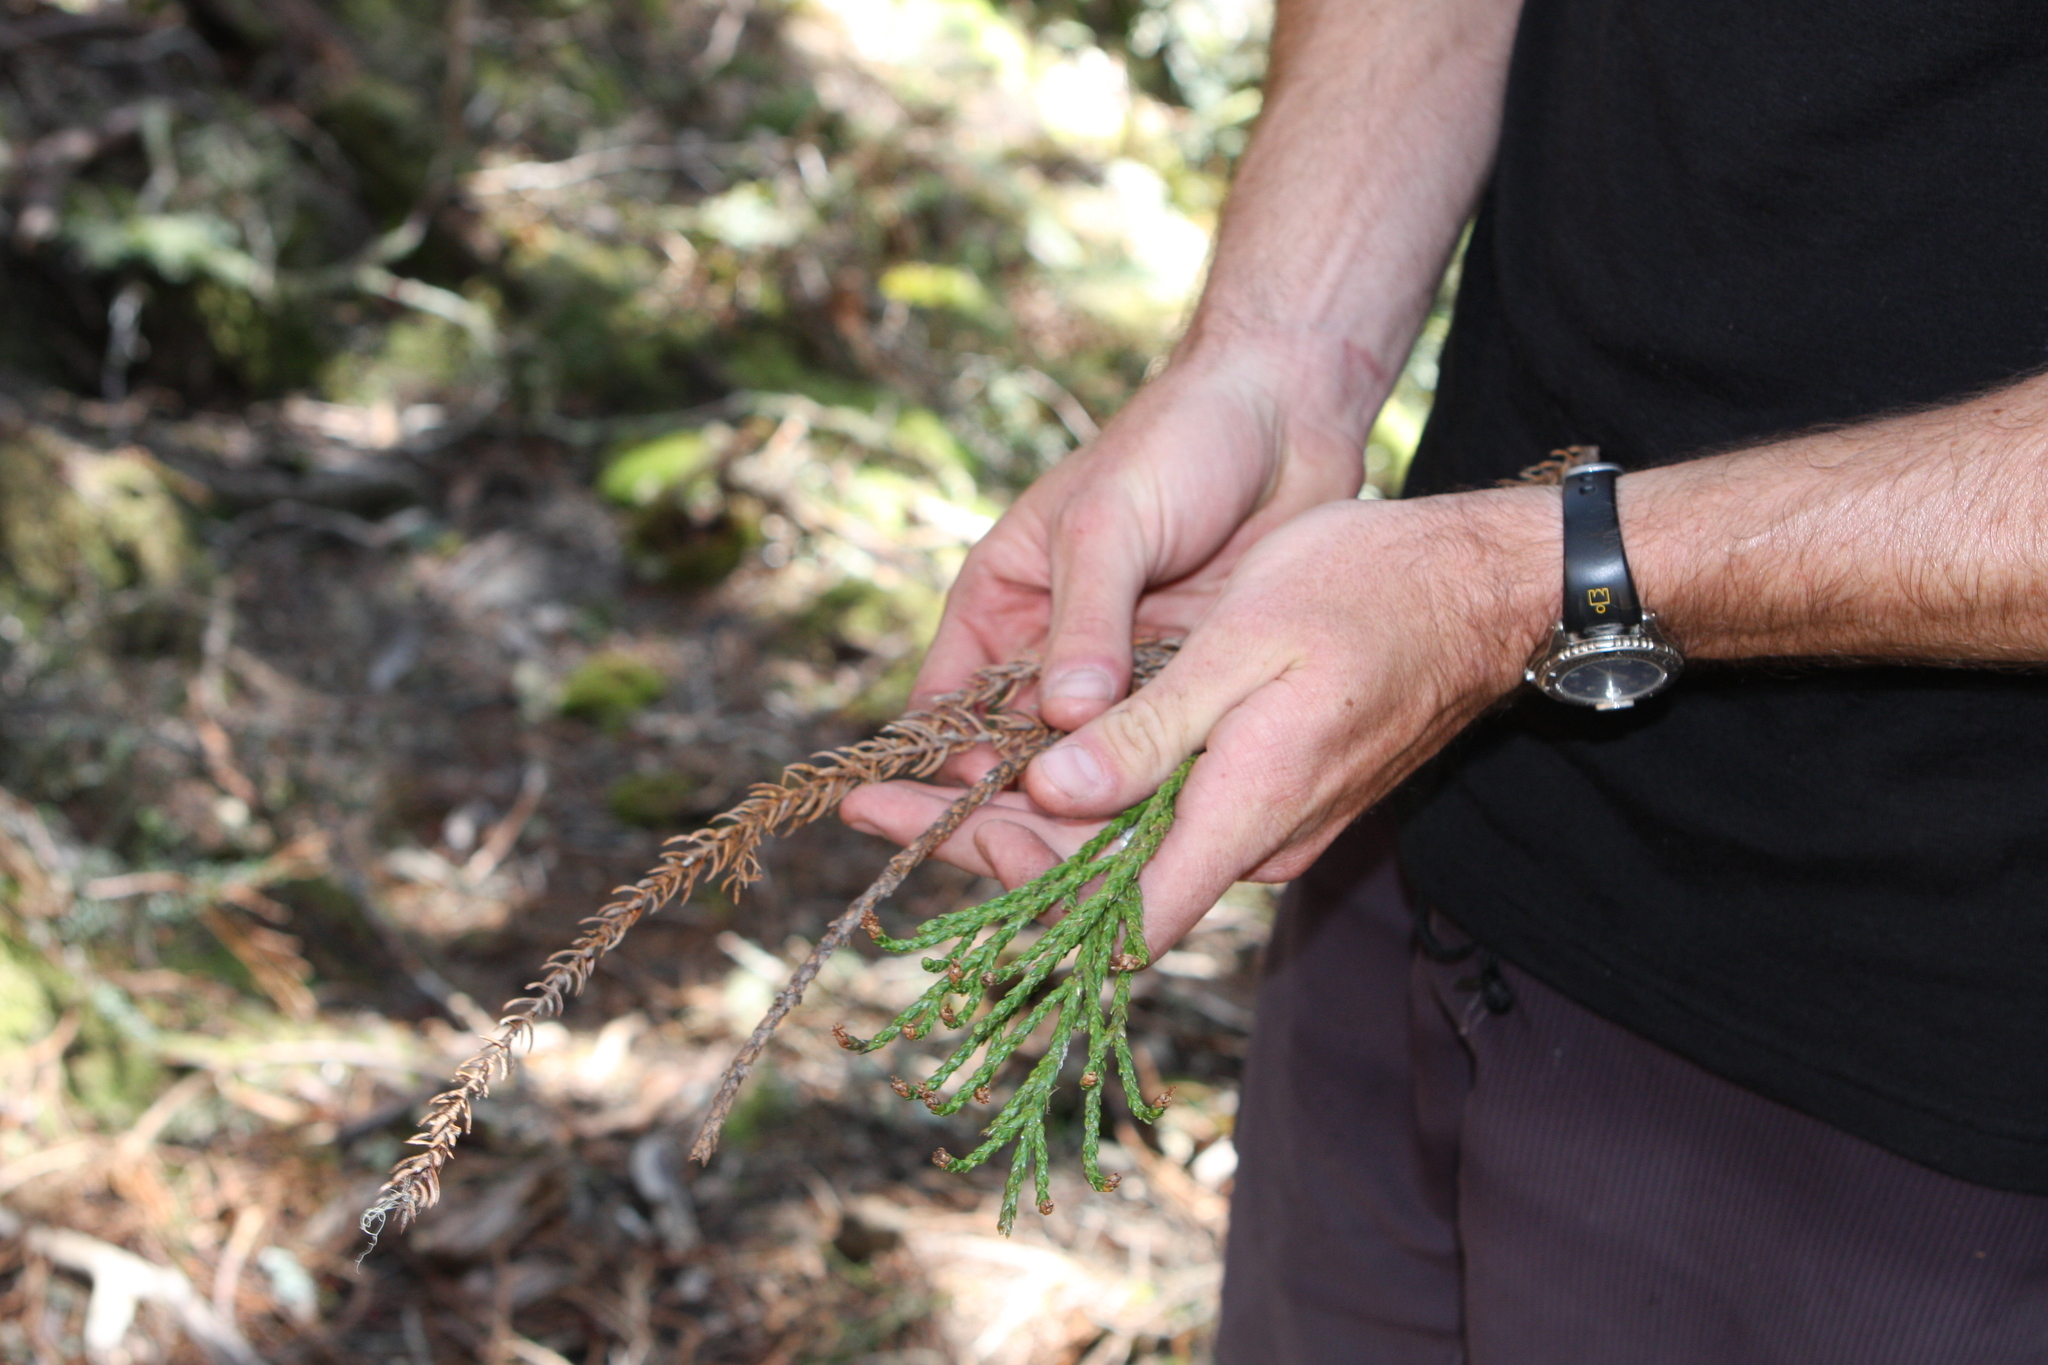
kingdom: Plantae
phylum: Tracheophyta
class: Pinopsida
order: Pinales
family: Cupressaceae
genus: Athrotaxis
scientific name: Athrotaxis laxifolia
